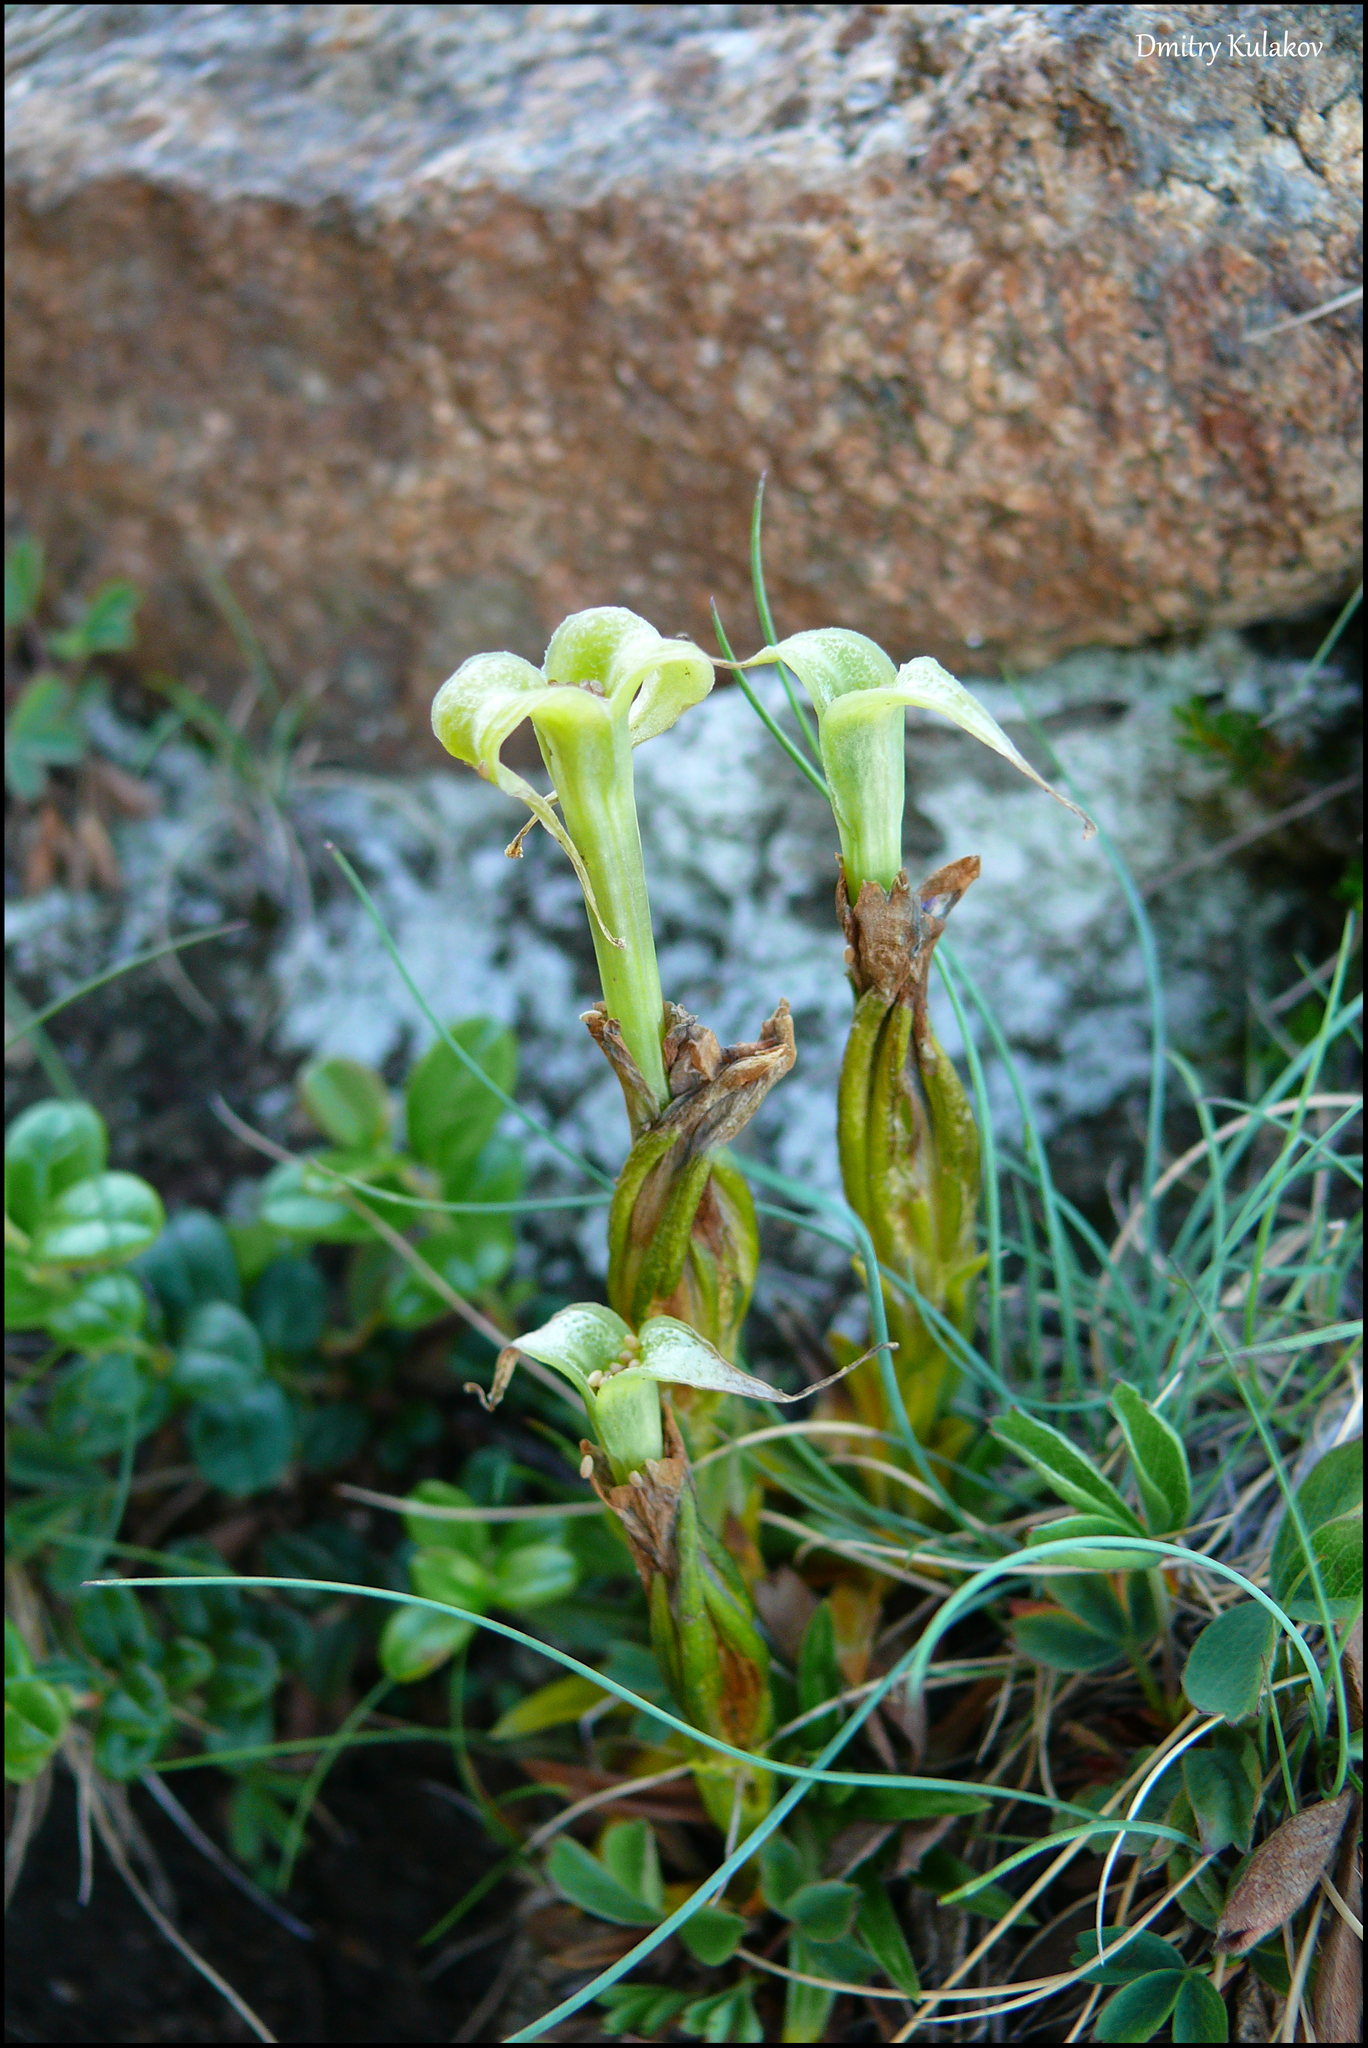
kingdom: Plantae
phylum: Tracheophyta
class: Magnoliopsida
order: Gentianales
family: Gentianaceae
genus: Gentiana
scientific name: Gentiana grandiflora
